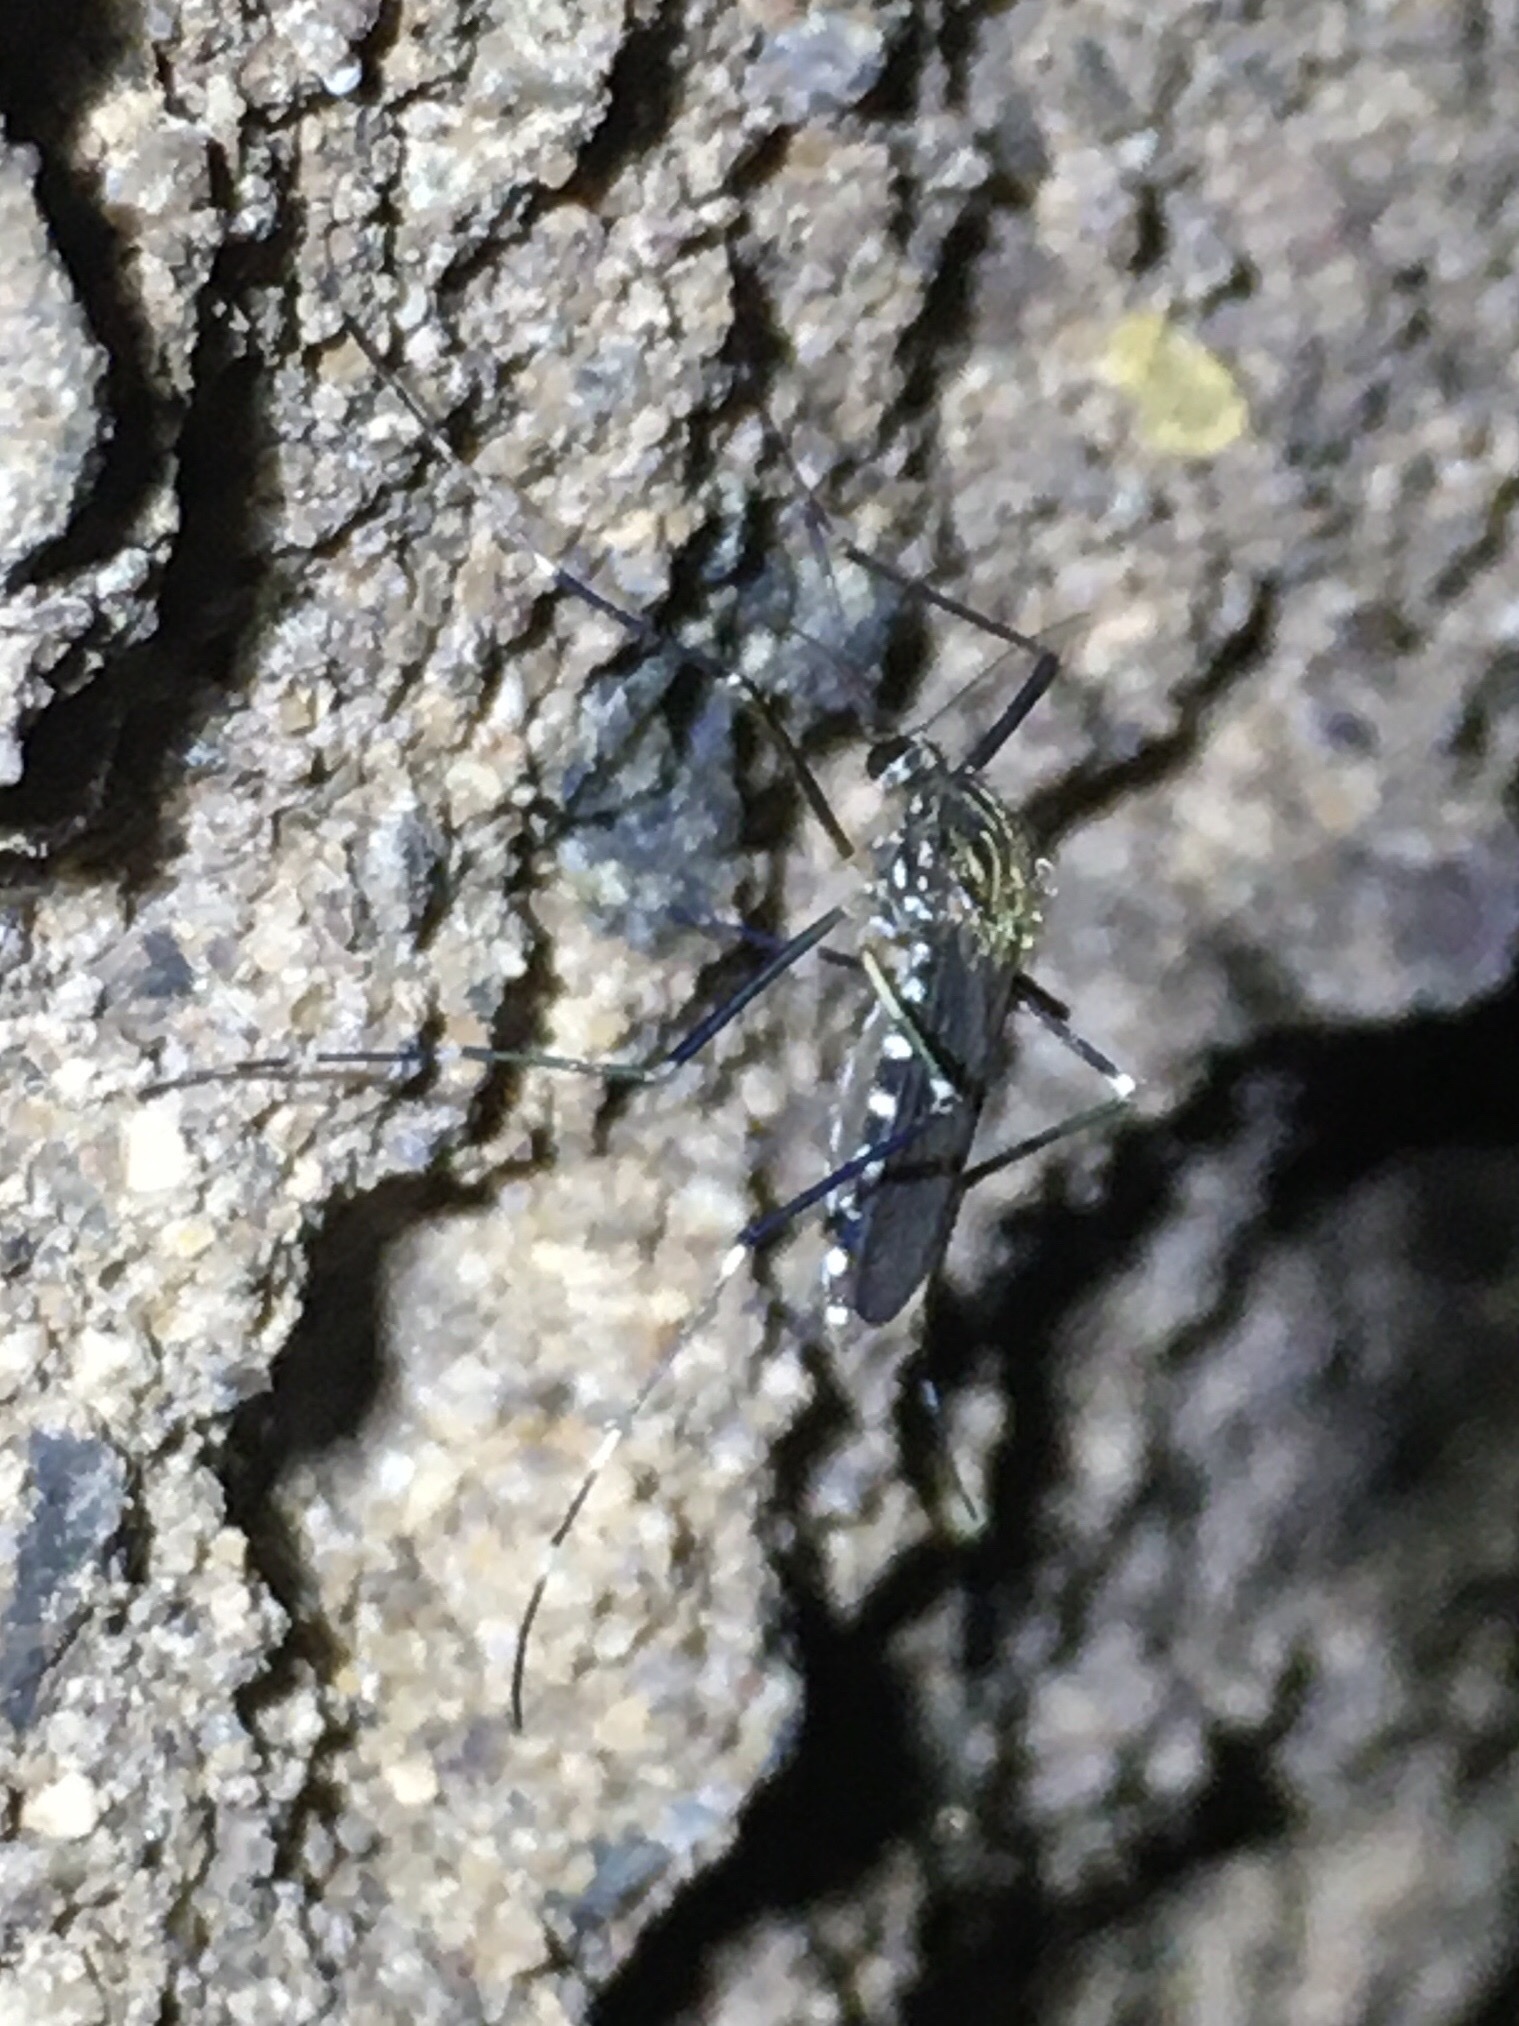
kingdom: Animalia
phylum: Arthropoda
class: Insecta
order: Diptera
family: Culicidae
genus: Aedes
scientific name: Aedes japonicus
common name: Asian bush mosquito
